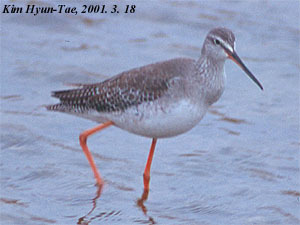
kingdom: Animalia
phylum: Chordata
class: Aves
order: Charadriiformes
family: Scolopacidae
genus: Tringa
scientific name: Tringa erythropus
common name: Spotted redshank
